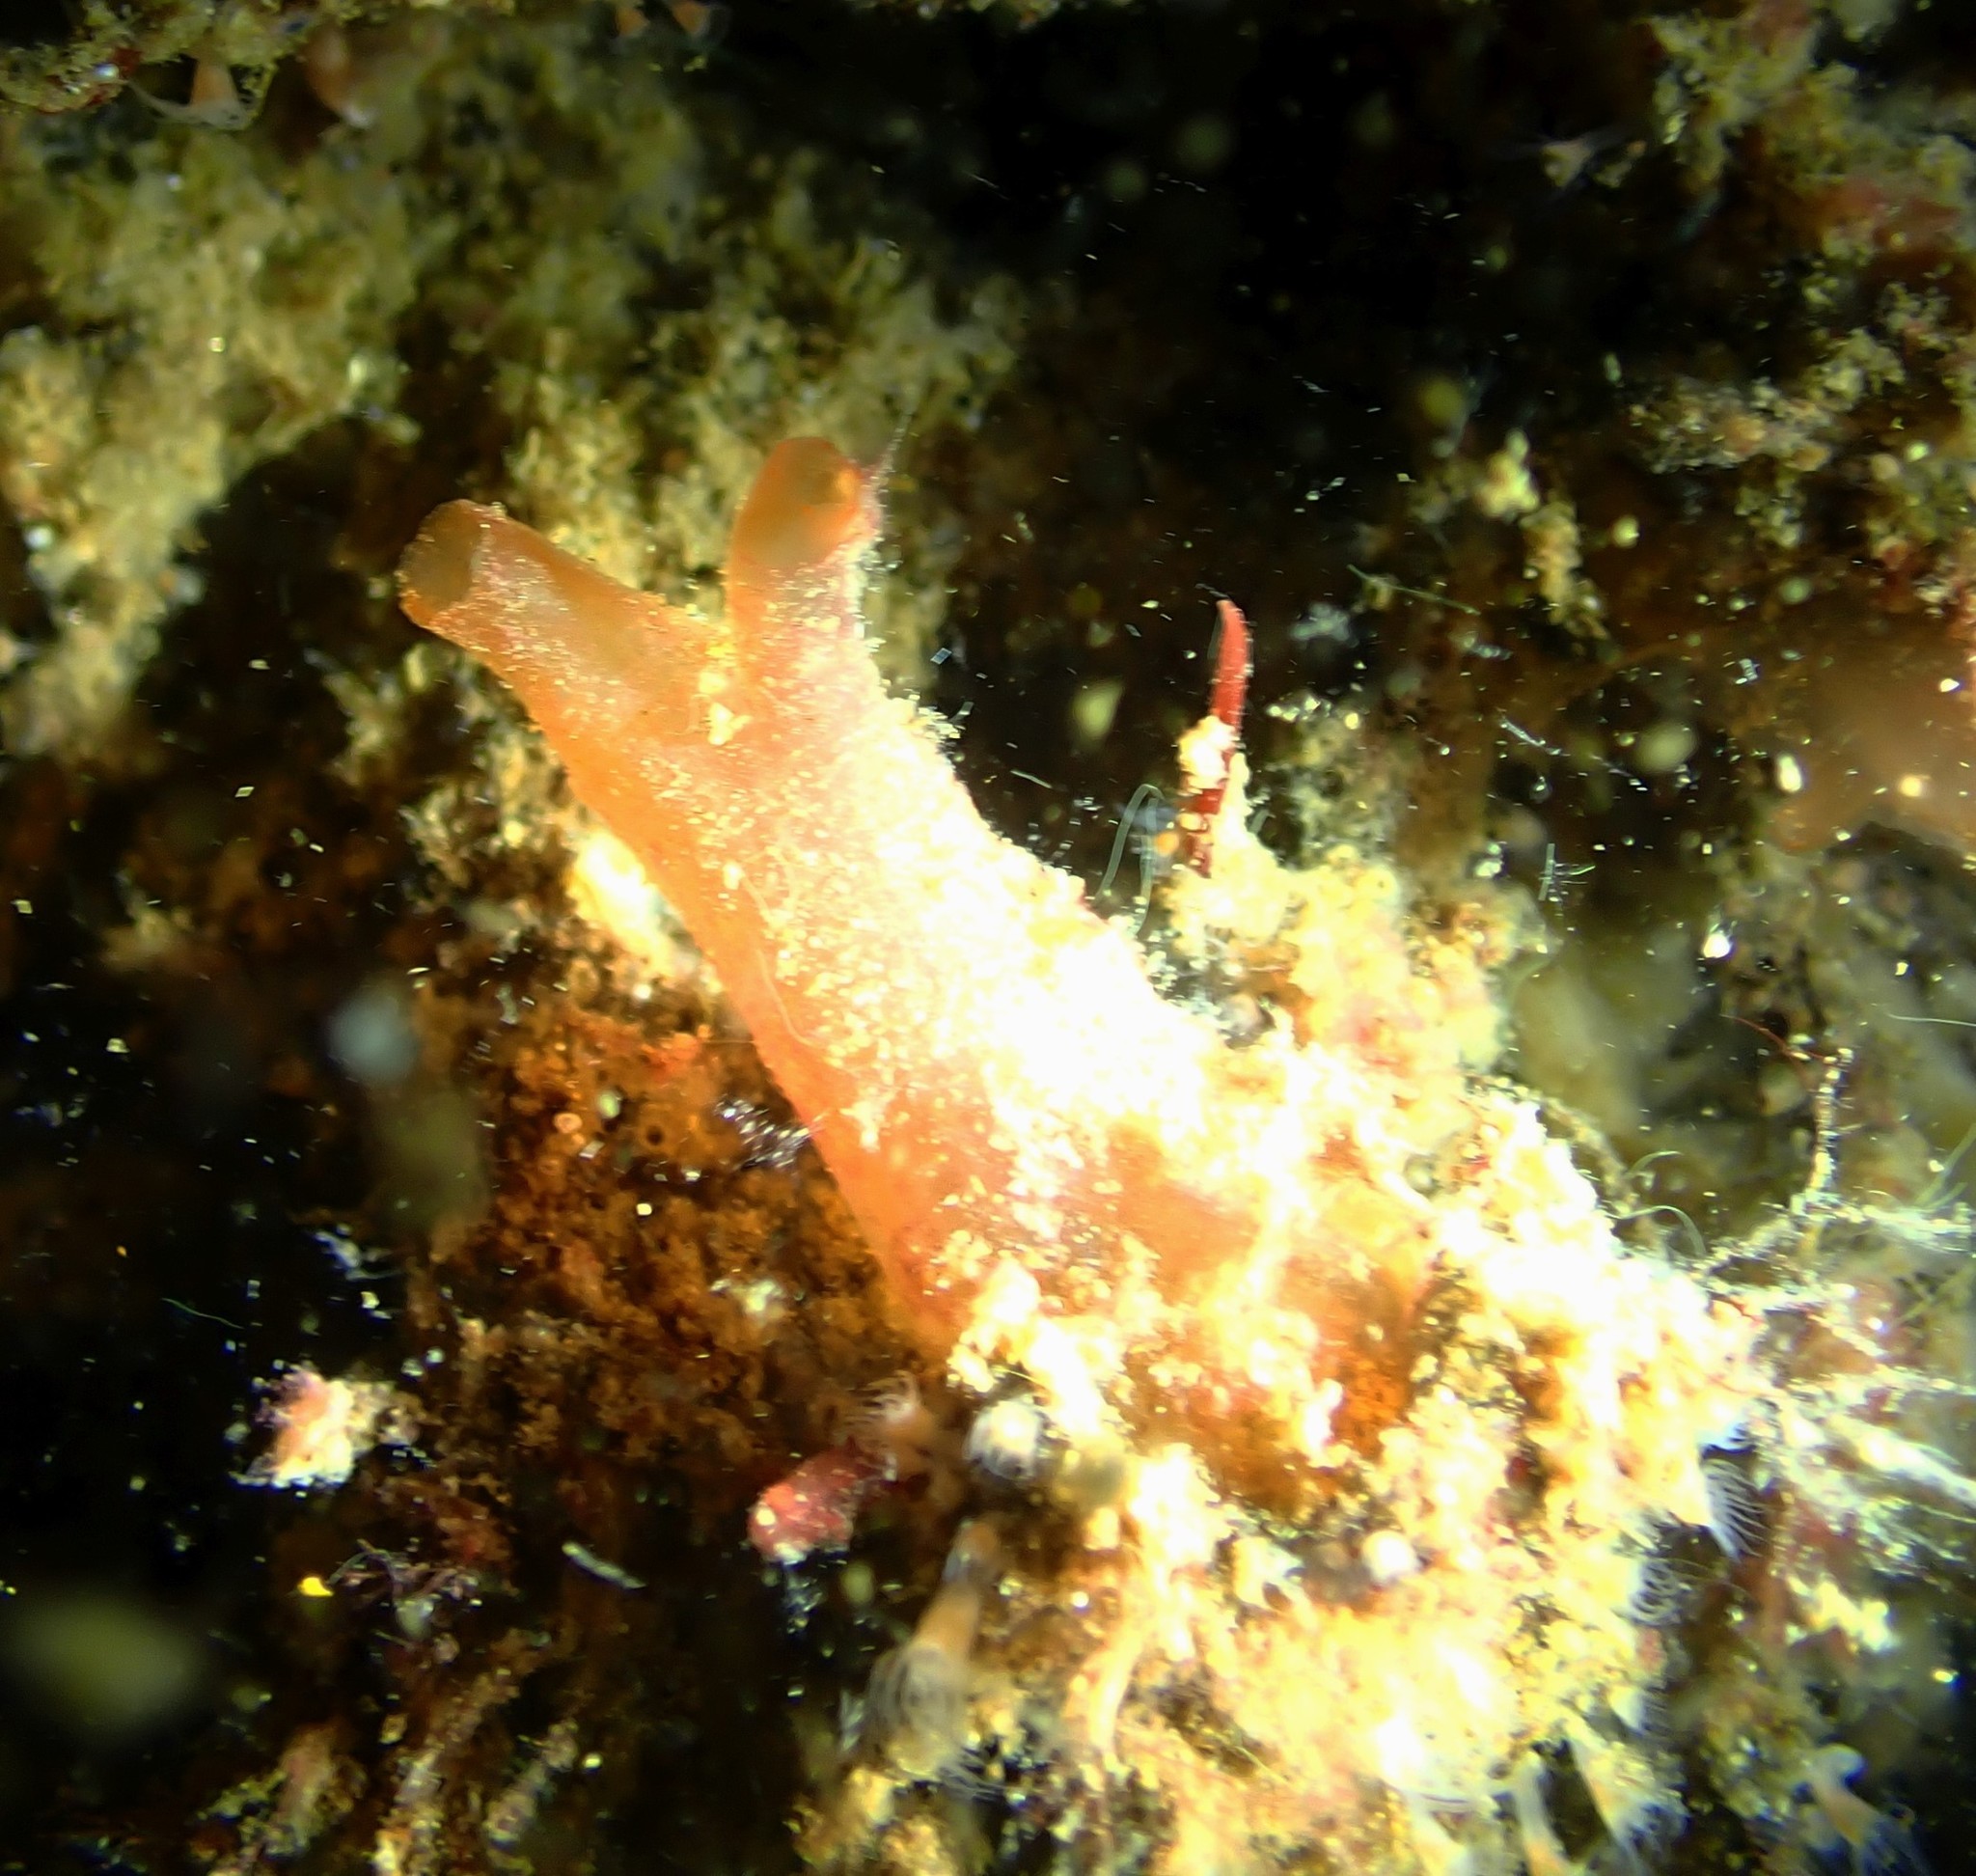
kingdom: Animalia
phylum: Chordata
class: Ascidiacea
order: Phlebobranchia
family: Cionidae
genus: Ciona
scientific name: Ciona intestinalis
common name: Vase tunicate
